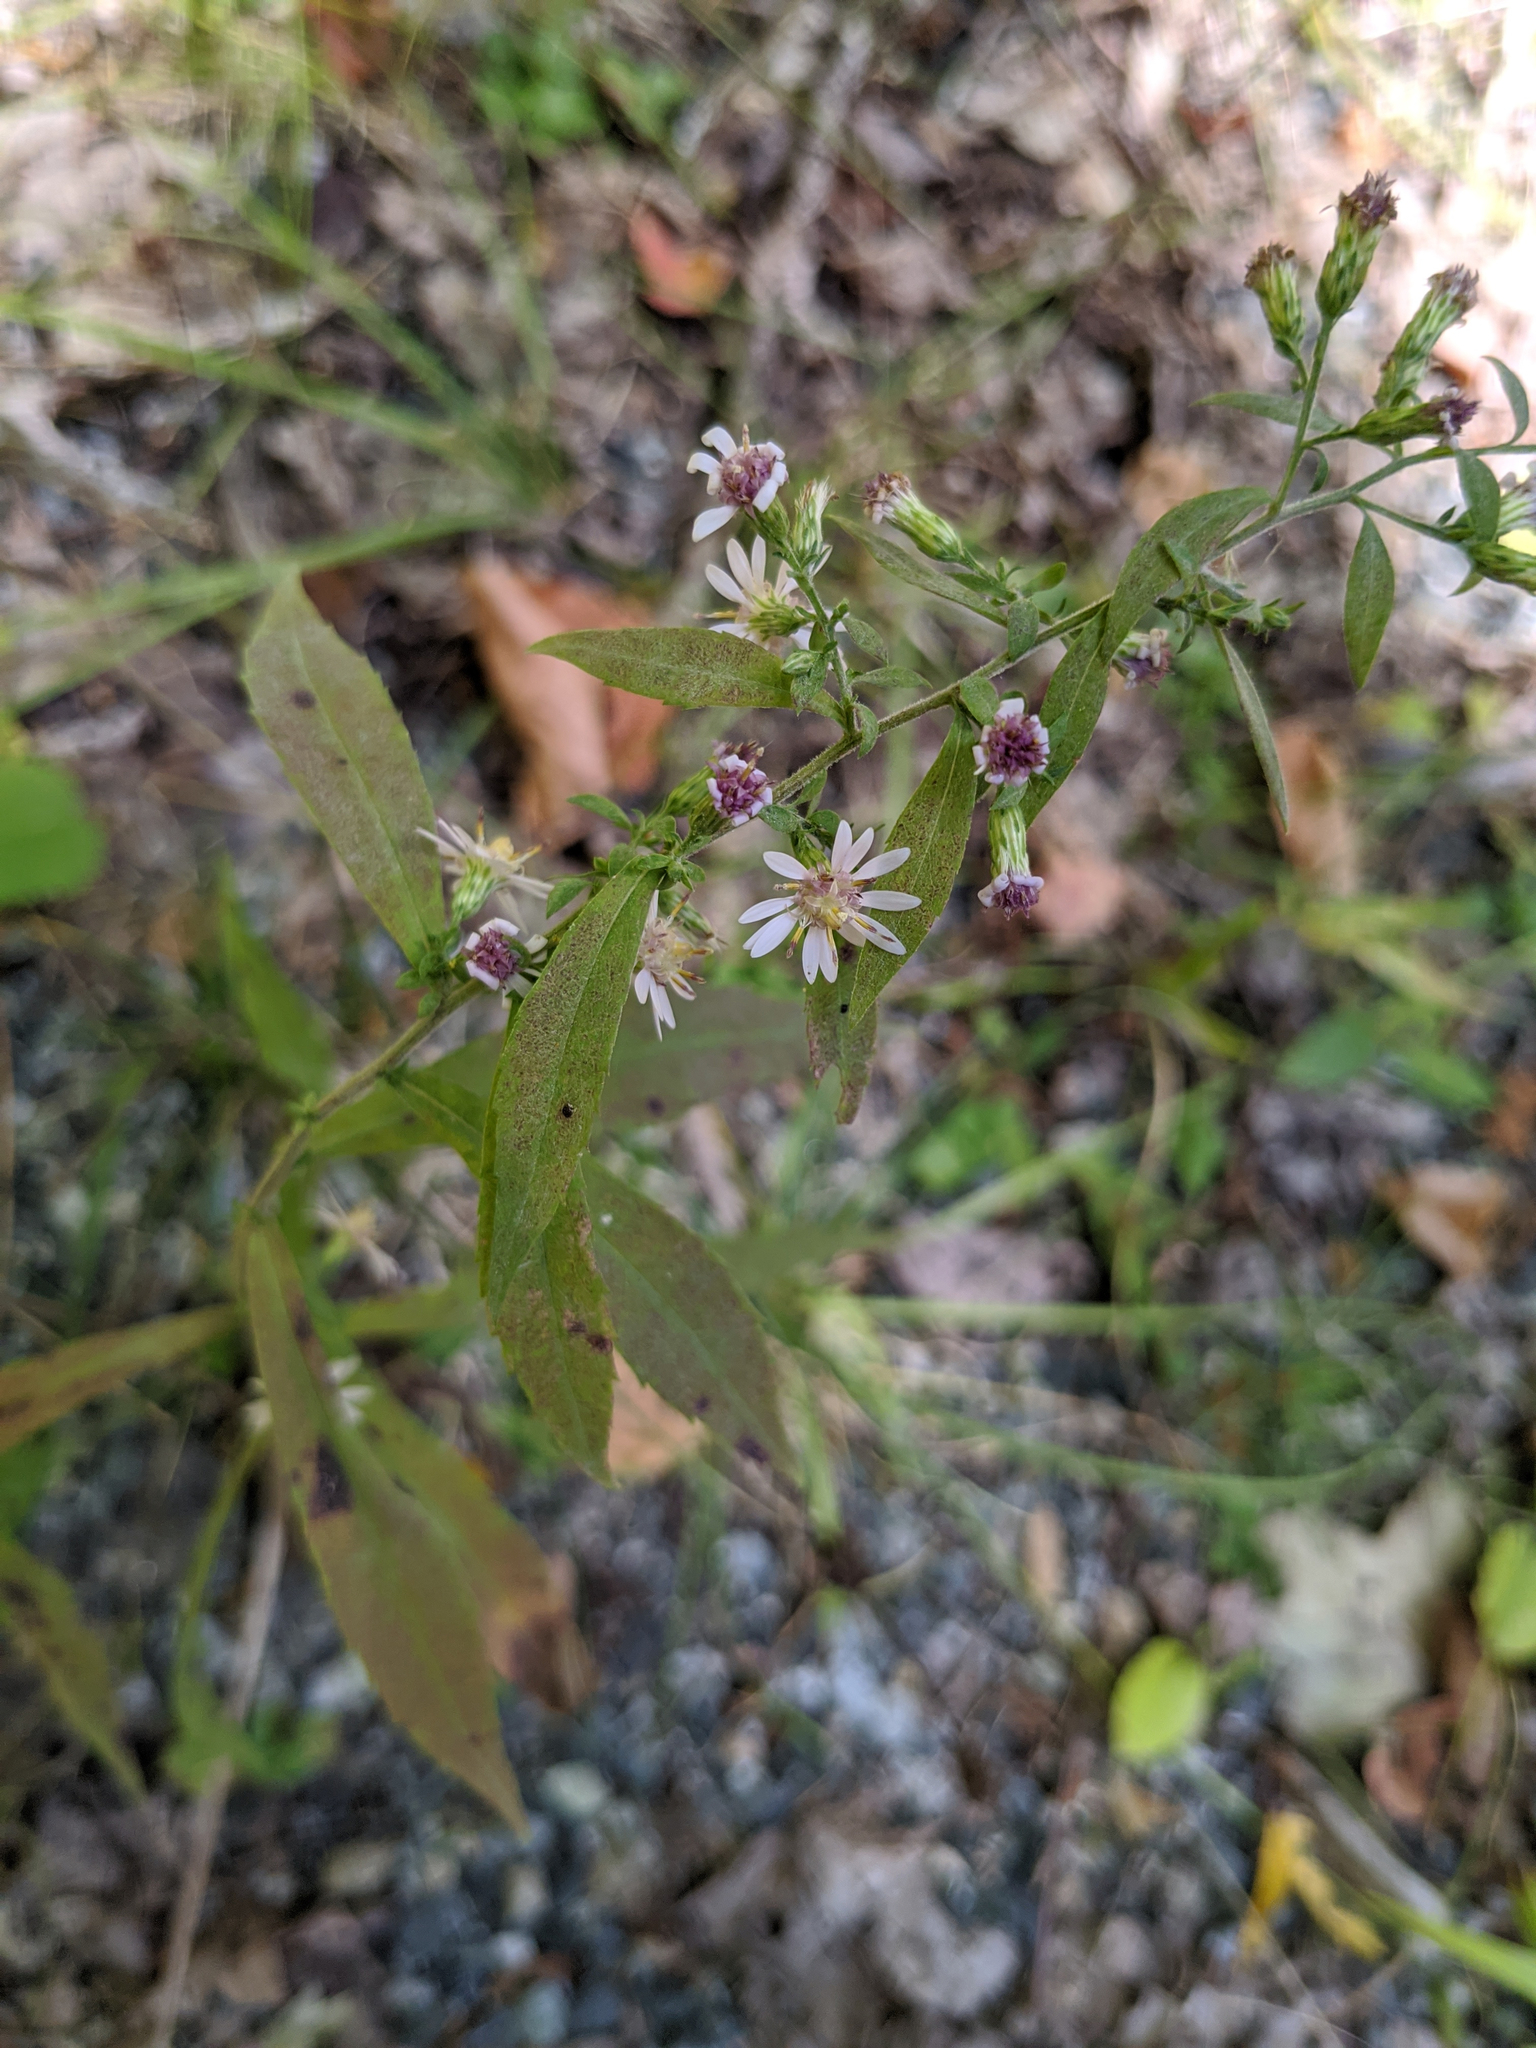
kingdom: Plantae
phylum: Tracheophyta
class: Magnoliopsida
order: Asterales
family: Asteraceae
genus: Symphyotrichum
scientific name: Symphyotrichum lateriflorum
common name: Calico aster
